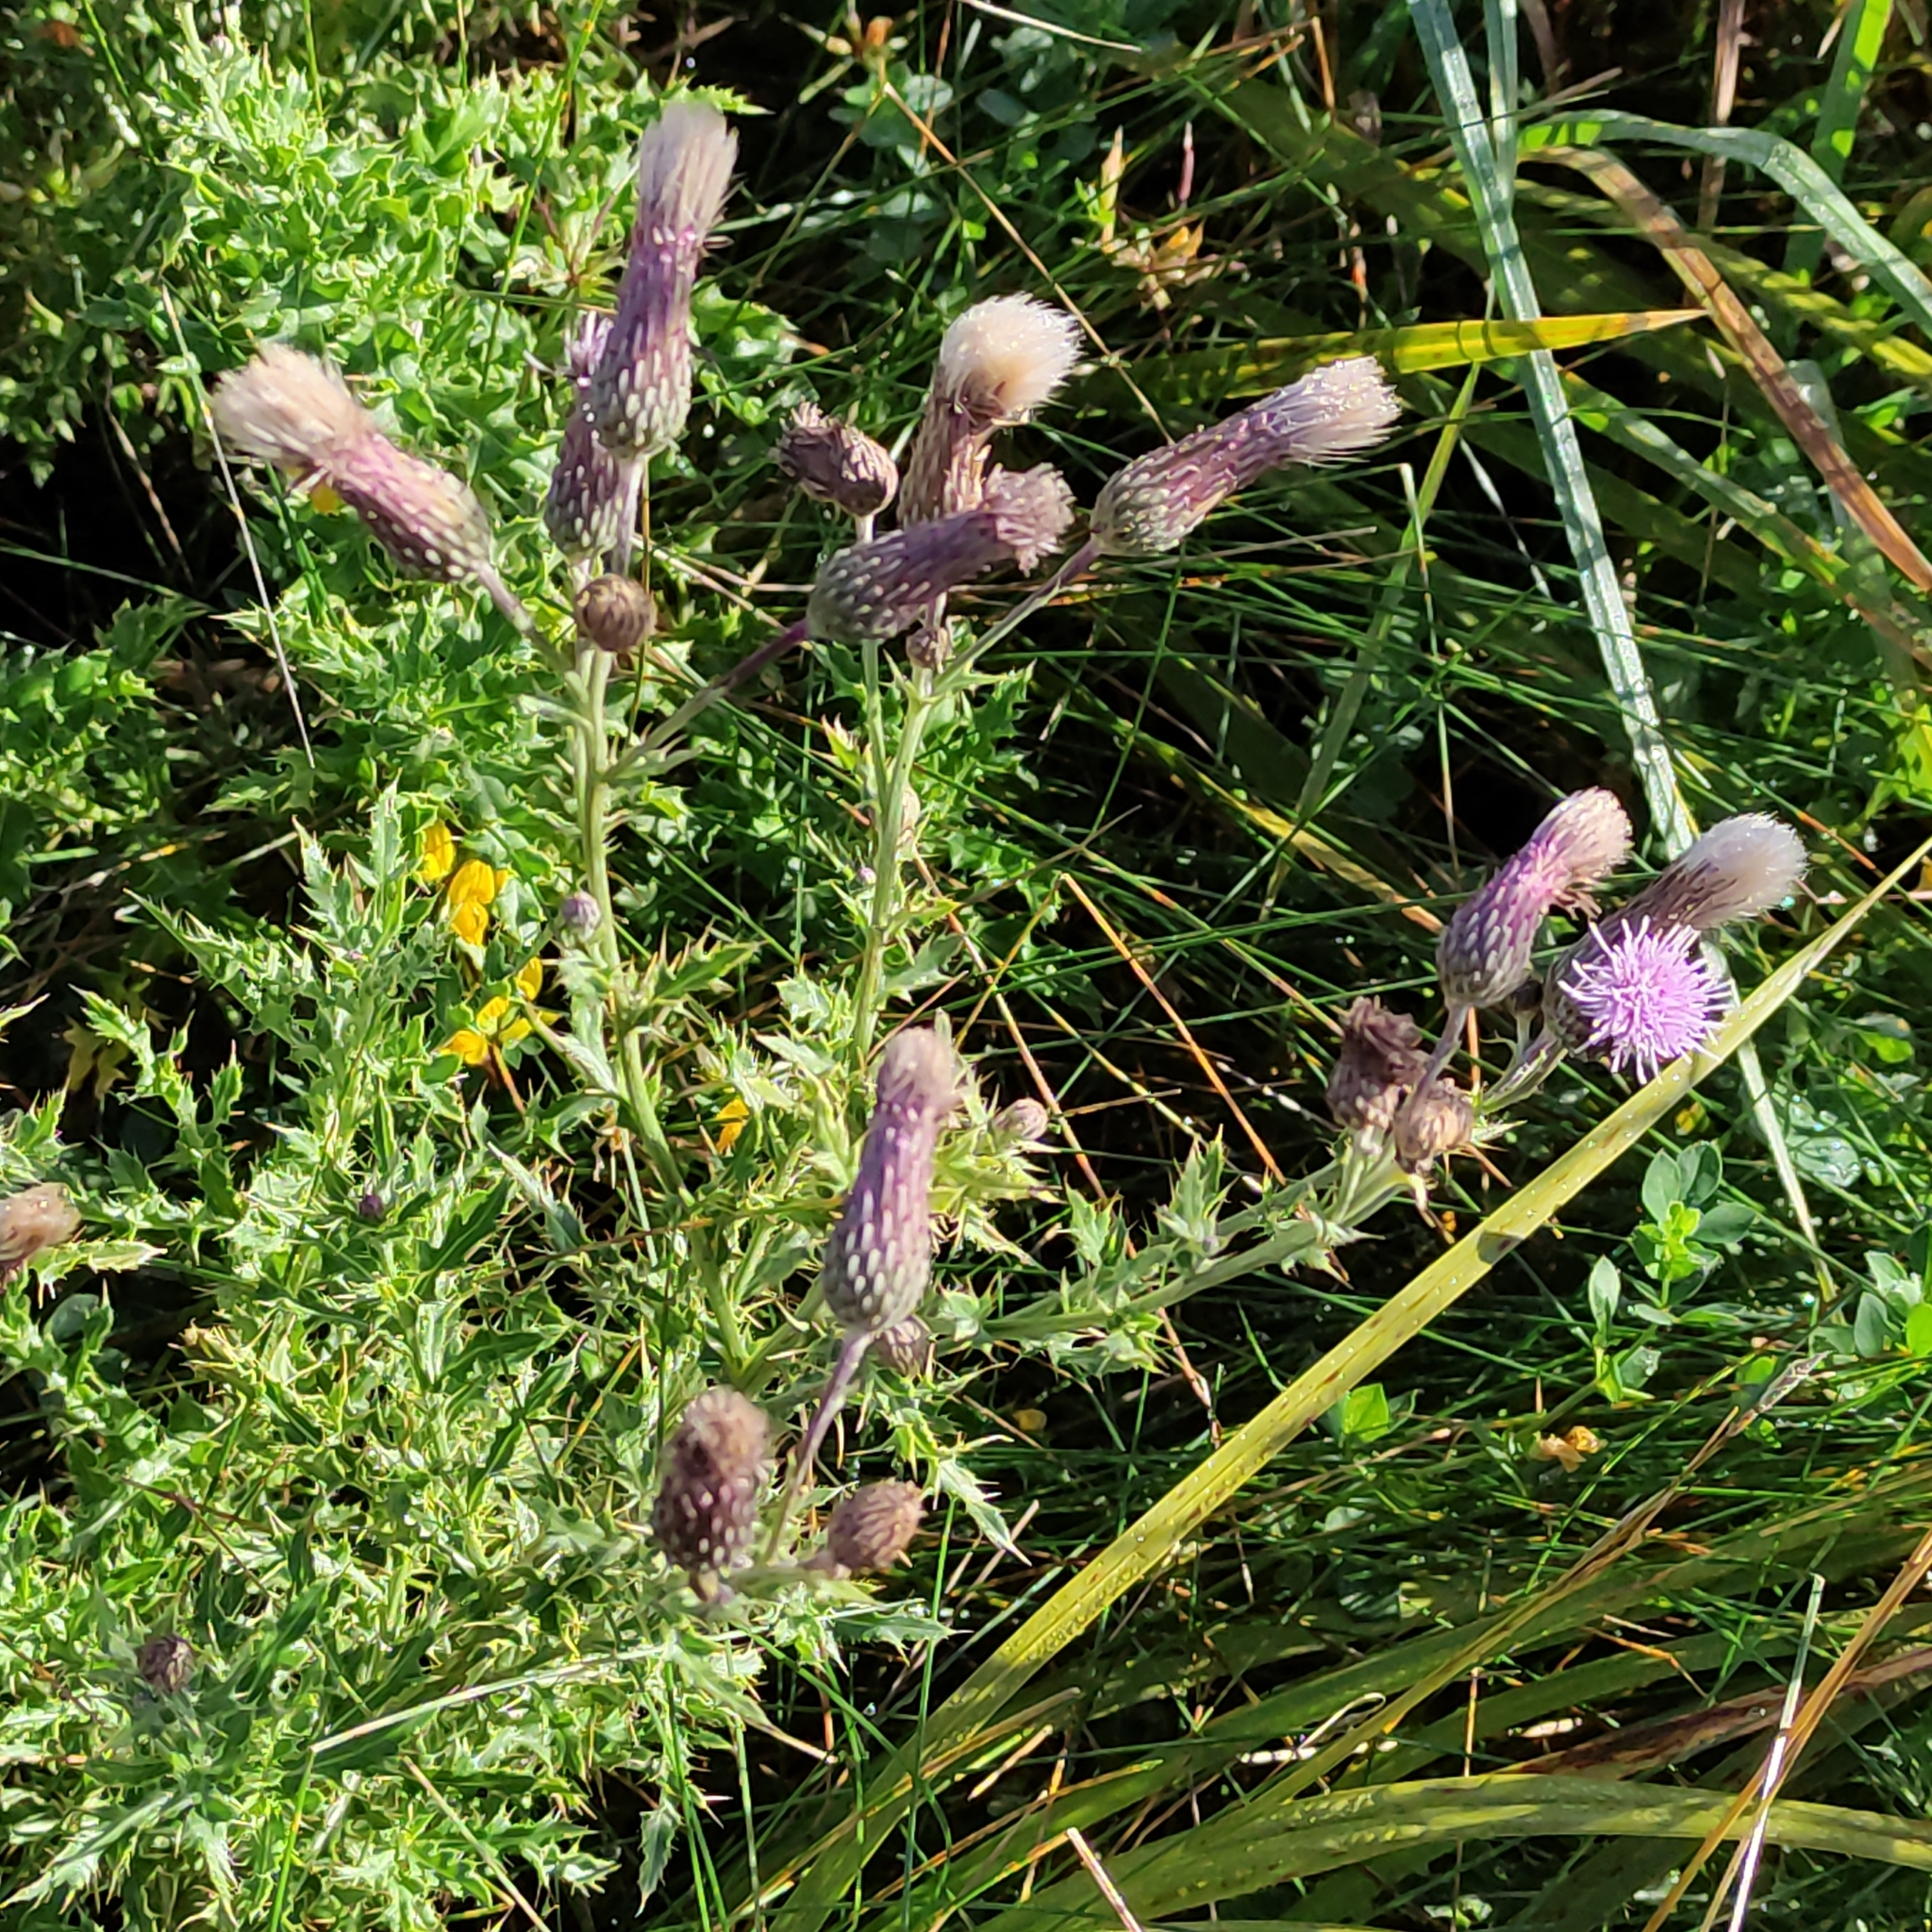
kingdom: Plantae
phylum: Tracheophyta
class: Magnoliopsida
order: Asterales
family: Asteraceae
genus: Cirsium
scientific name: Cirsium arvense
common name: Creeping thistle
